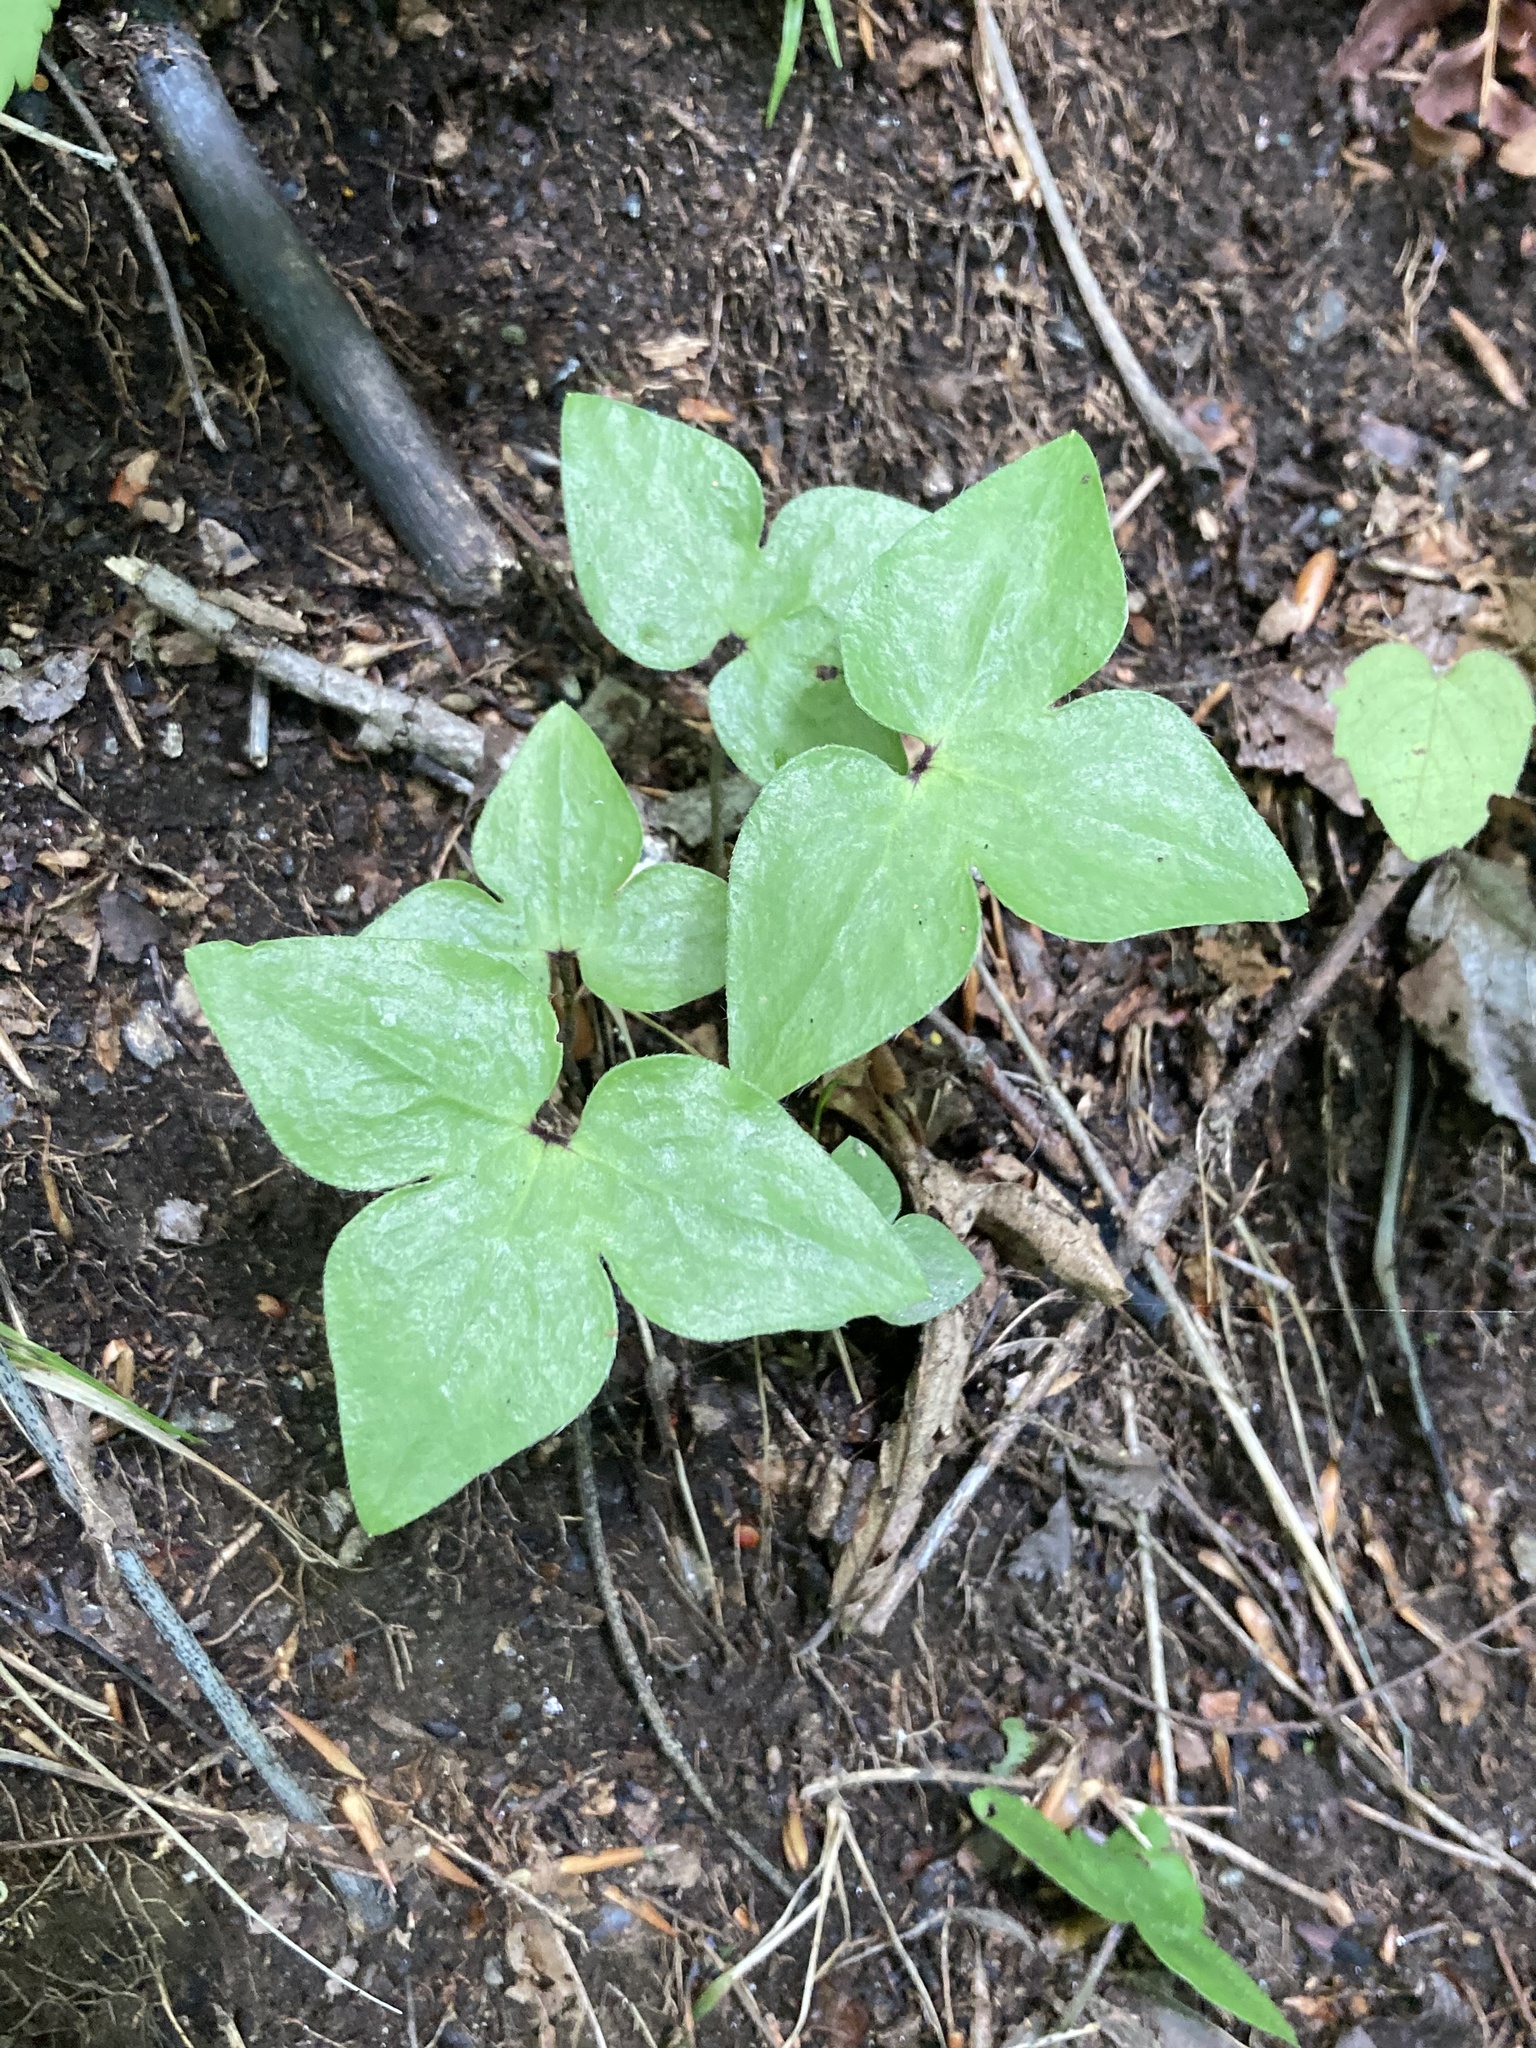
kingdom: Plantae
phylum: Tracheophyta
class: Magnoliopsida
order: Ranunculales
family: Ranunculaceae
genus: Hepatica
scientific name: Hepatica acutiloba
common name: Sharp-lobed hepatica
